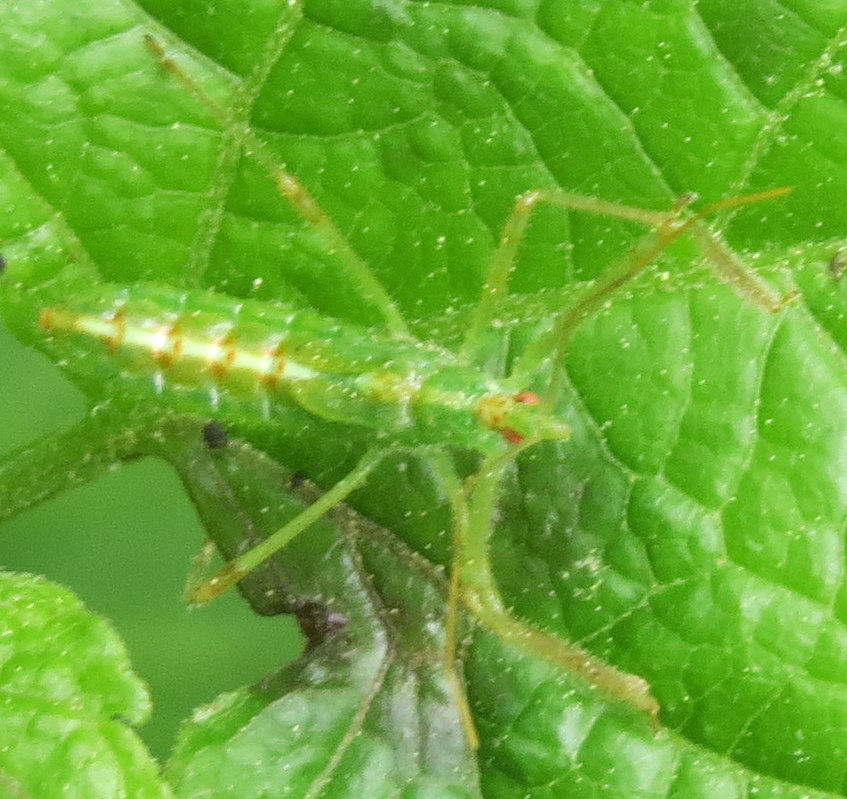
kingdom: Animalia
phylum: Arthropoda
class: Insecta
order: Hemiptera
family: Reduviidae
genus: Zelus
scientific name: Zelus luridus
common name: Pale green assassin bug
